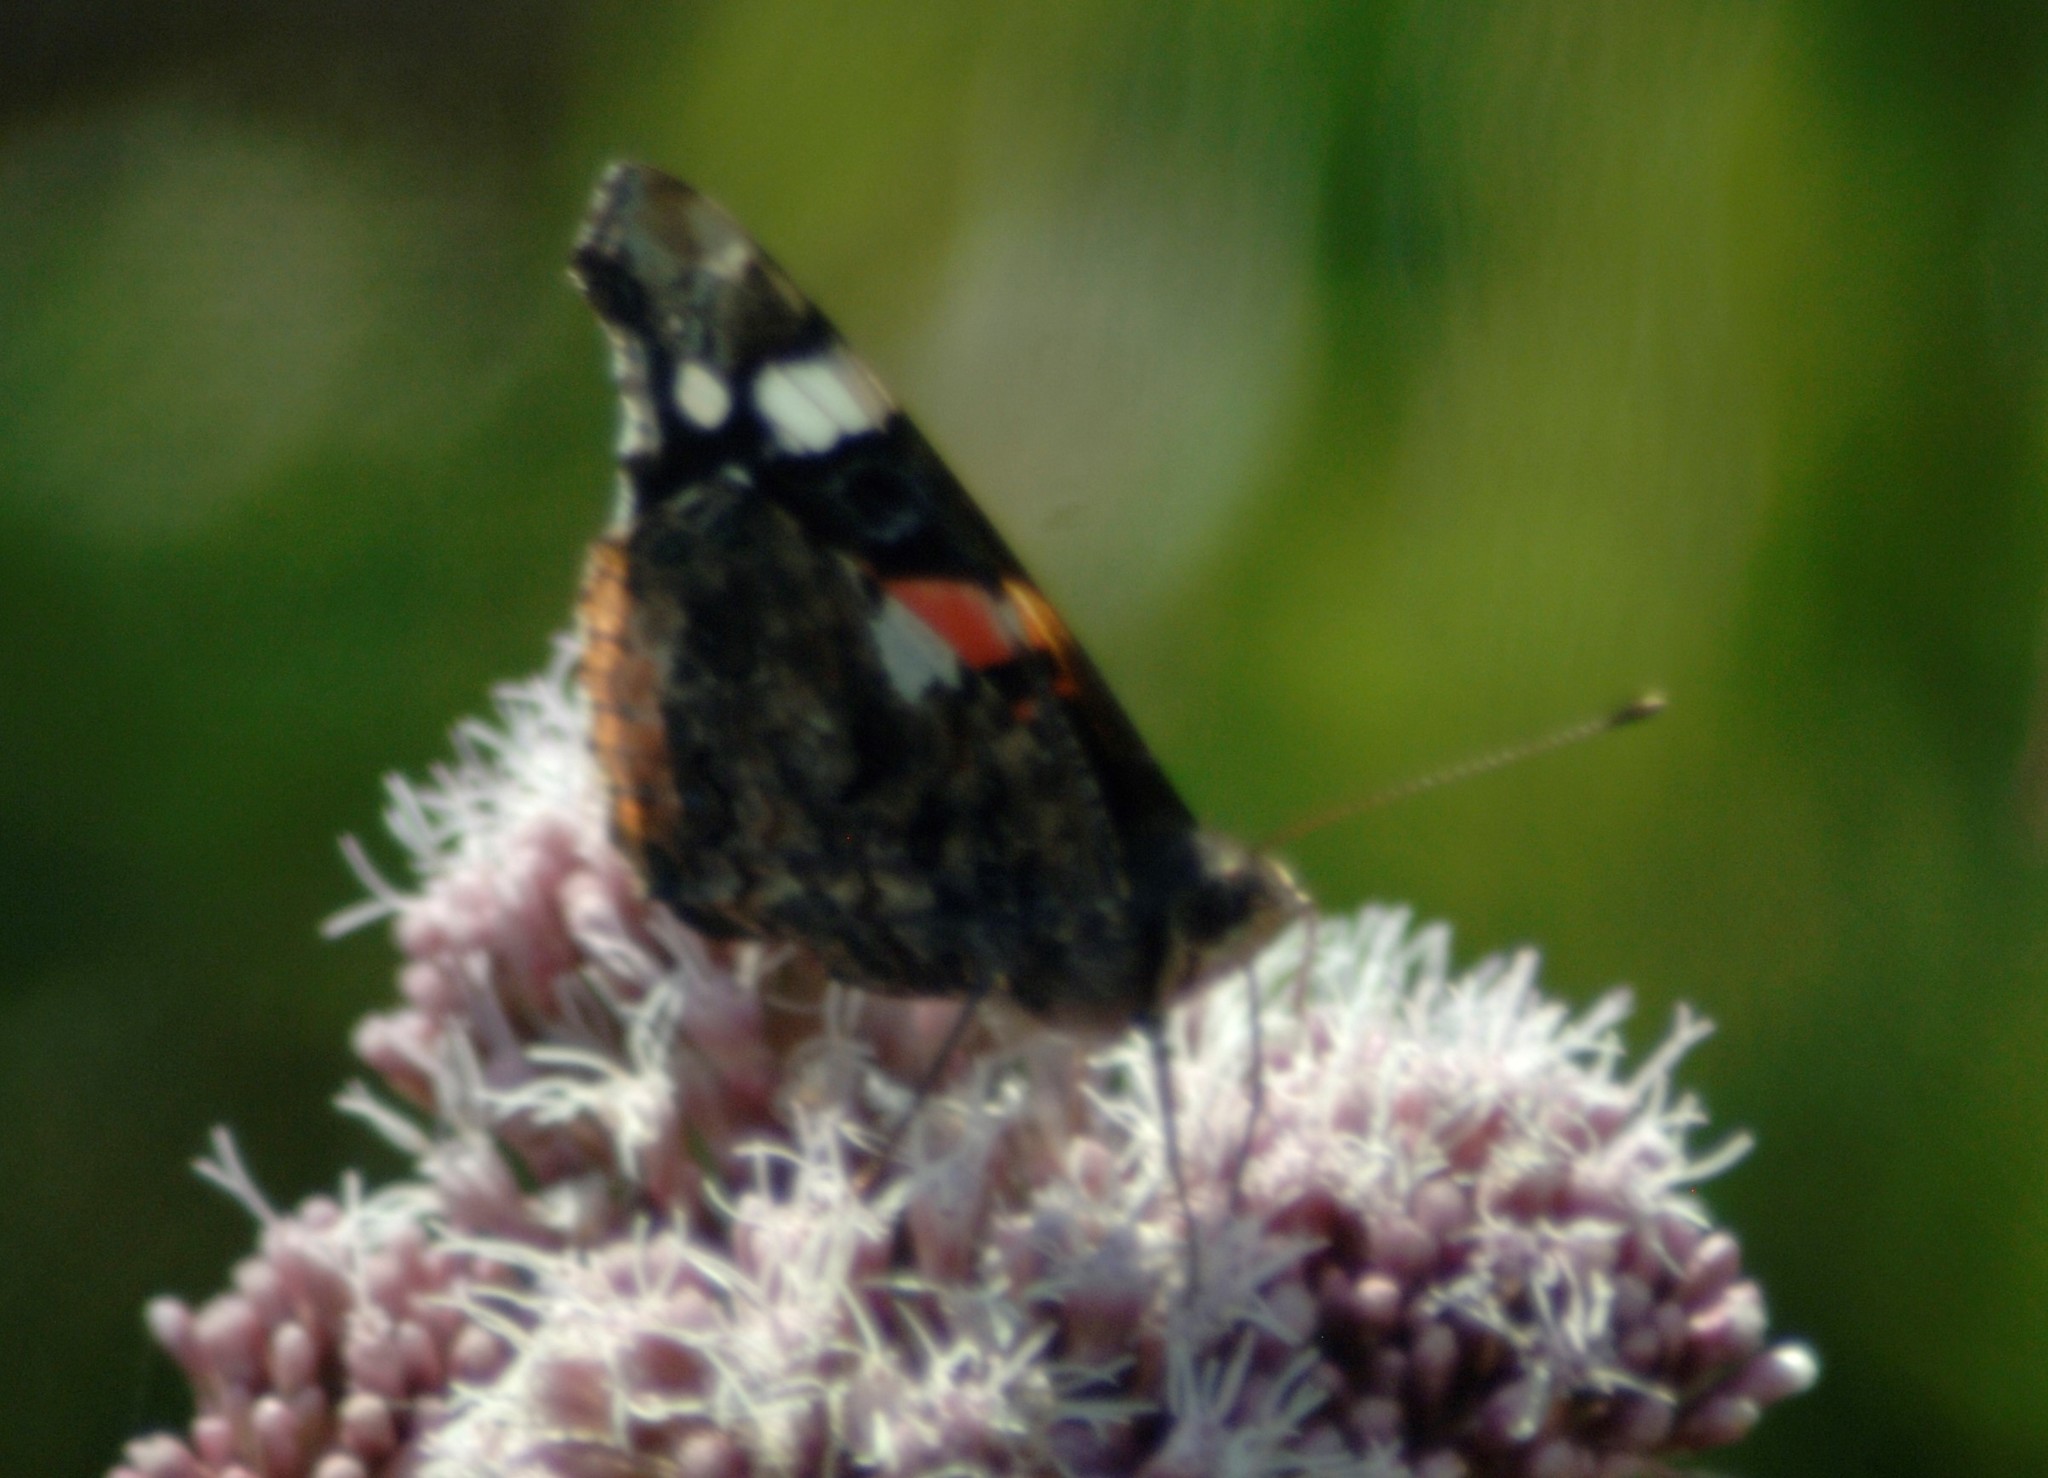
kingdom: Animalia
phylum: Arthropoda
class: Insecta
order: Lepidoptera
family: Nymphalidae
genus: Vanessa
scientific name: Vanessa atalanta
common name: Red admiral
